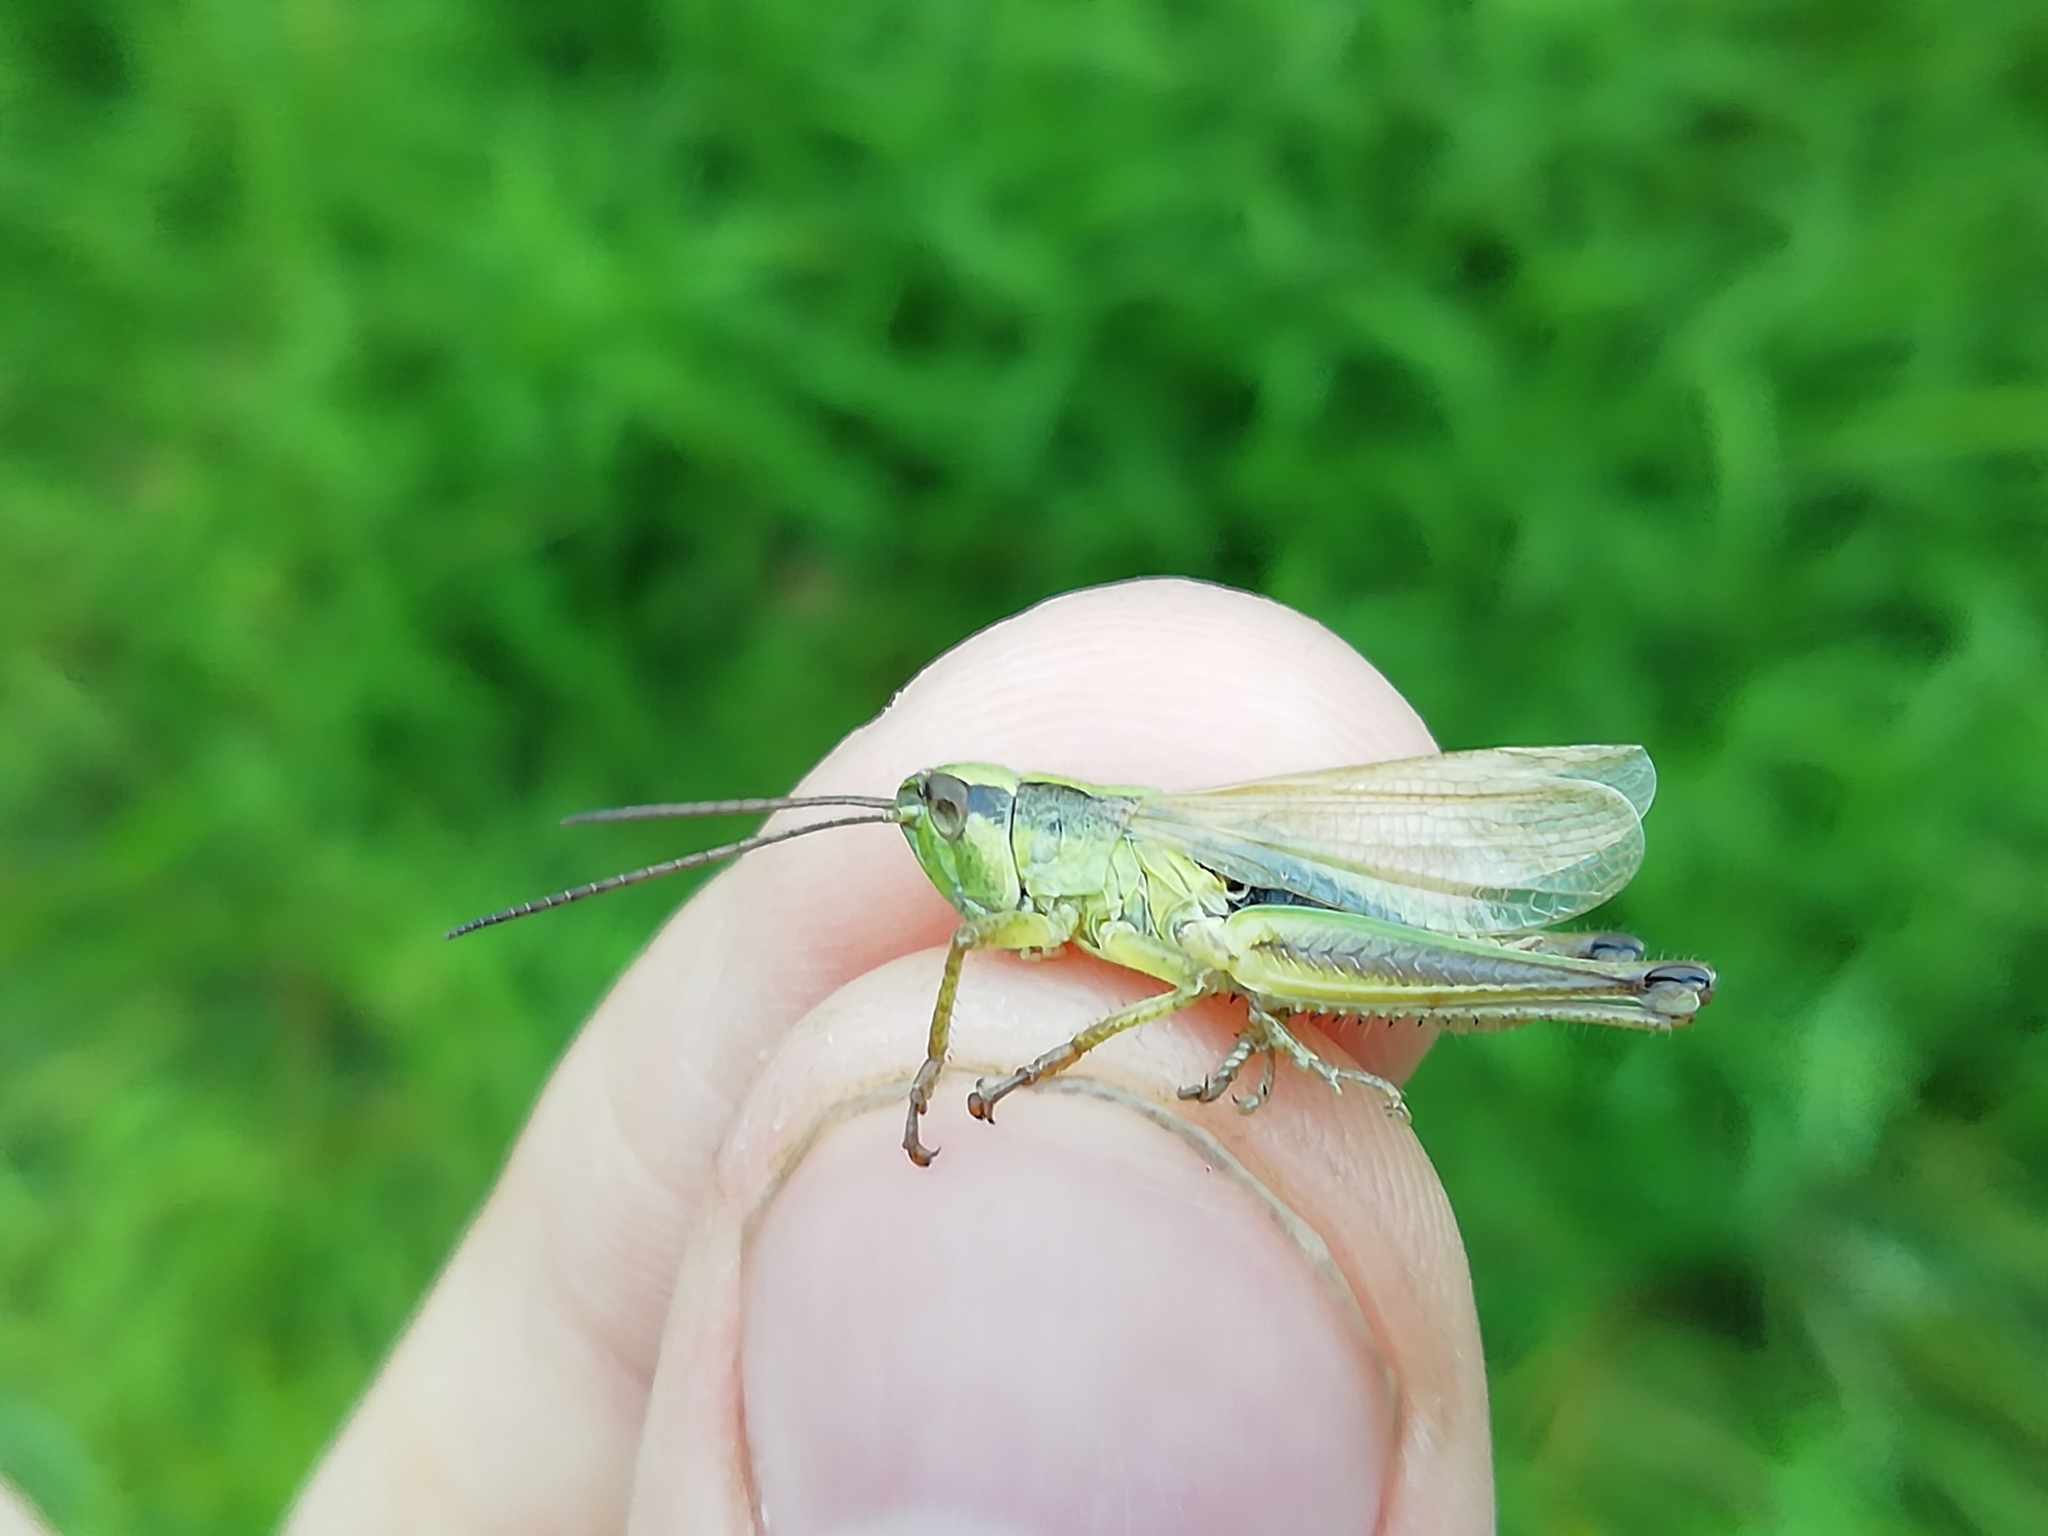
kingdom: Animalia
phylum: Arthropoda
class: Insecta
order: Orthoptera
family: Acrididae
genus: Chorthippus
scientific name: Chorthippus fallax
